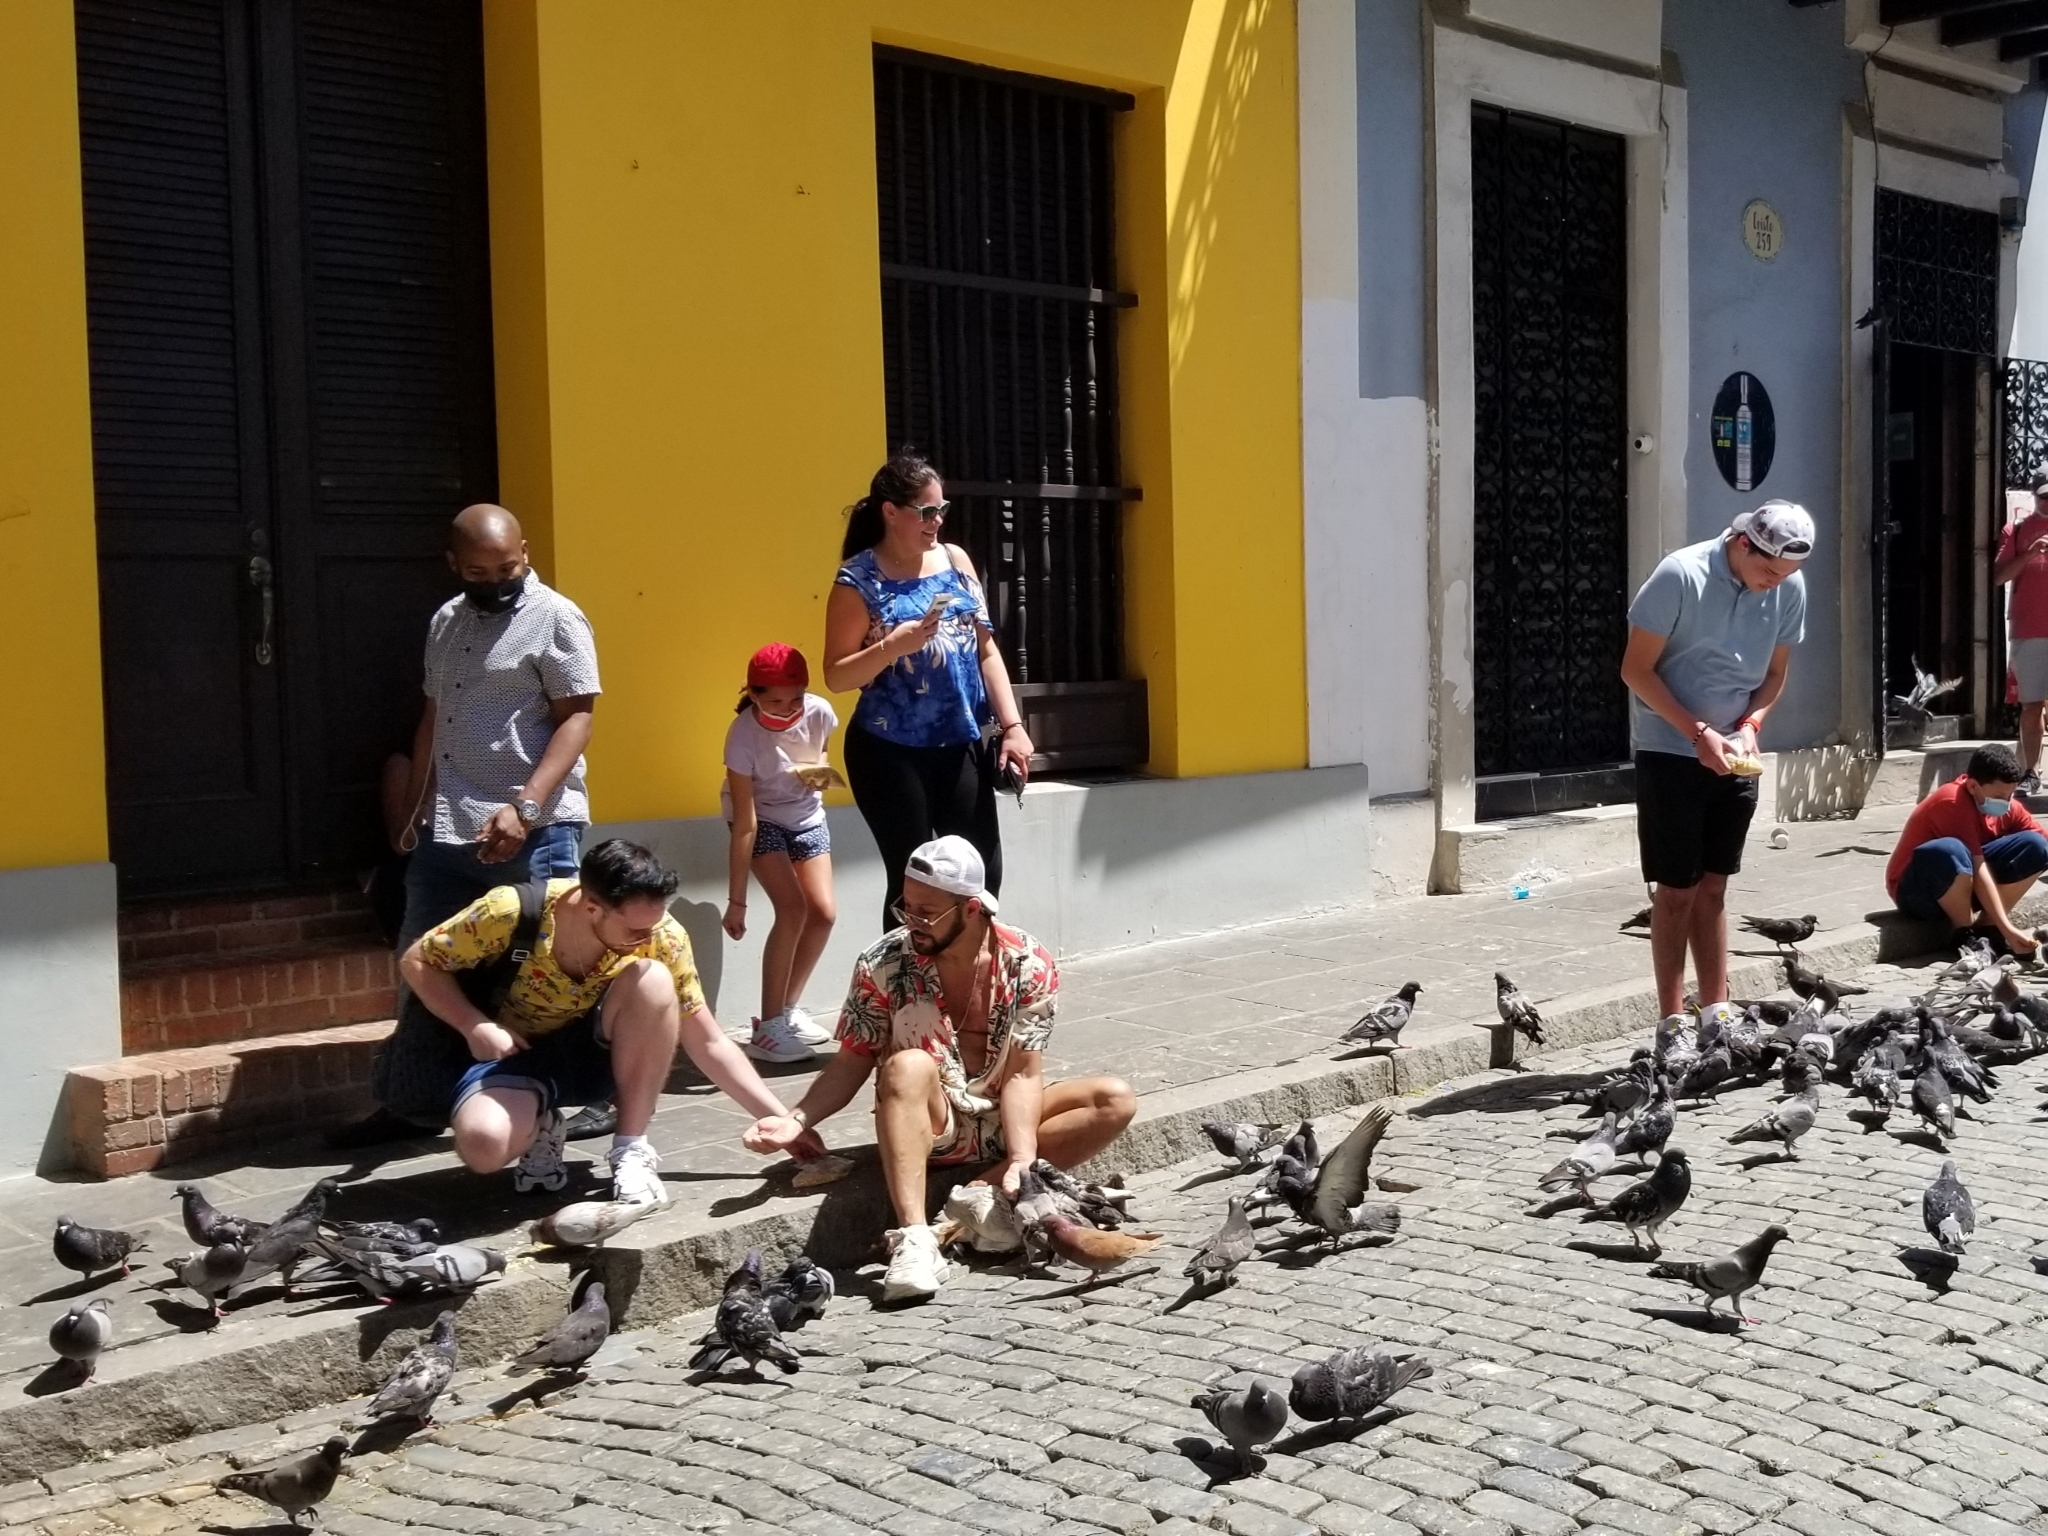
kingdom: Animalia
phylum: Chordata
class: Aves
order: Columbiformes
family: Columbidae
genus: Columba
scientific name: Columba livia
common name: Rock pigeon
